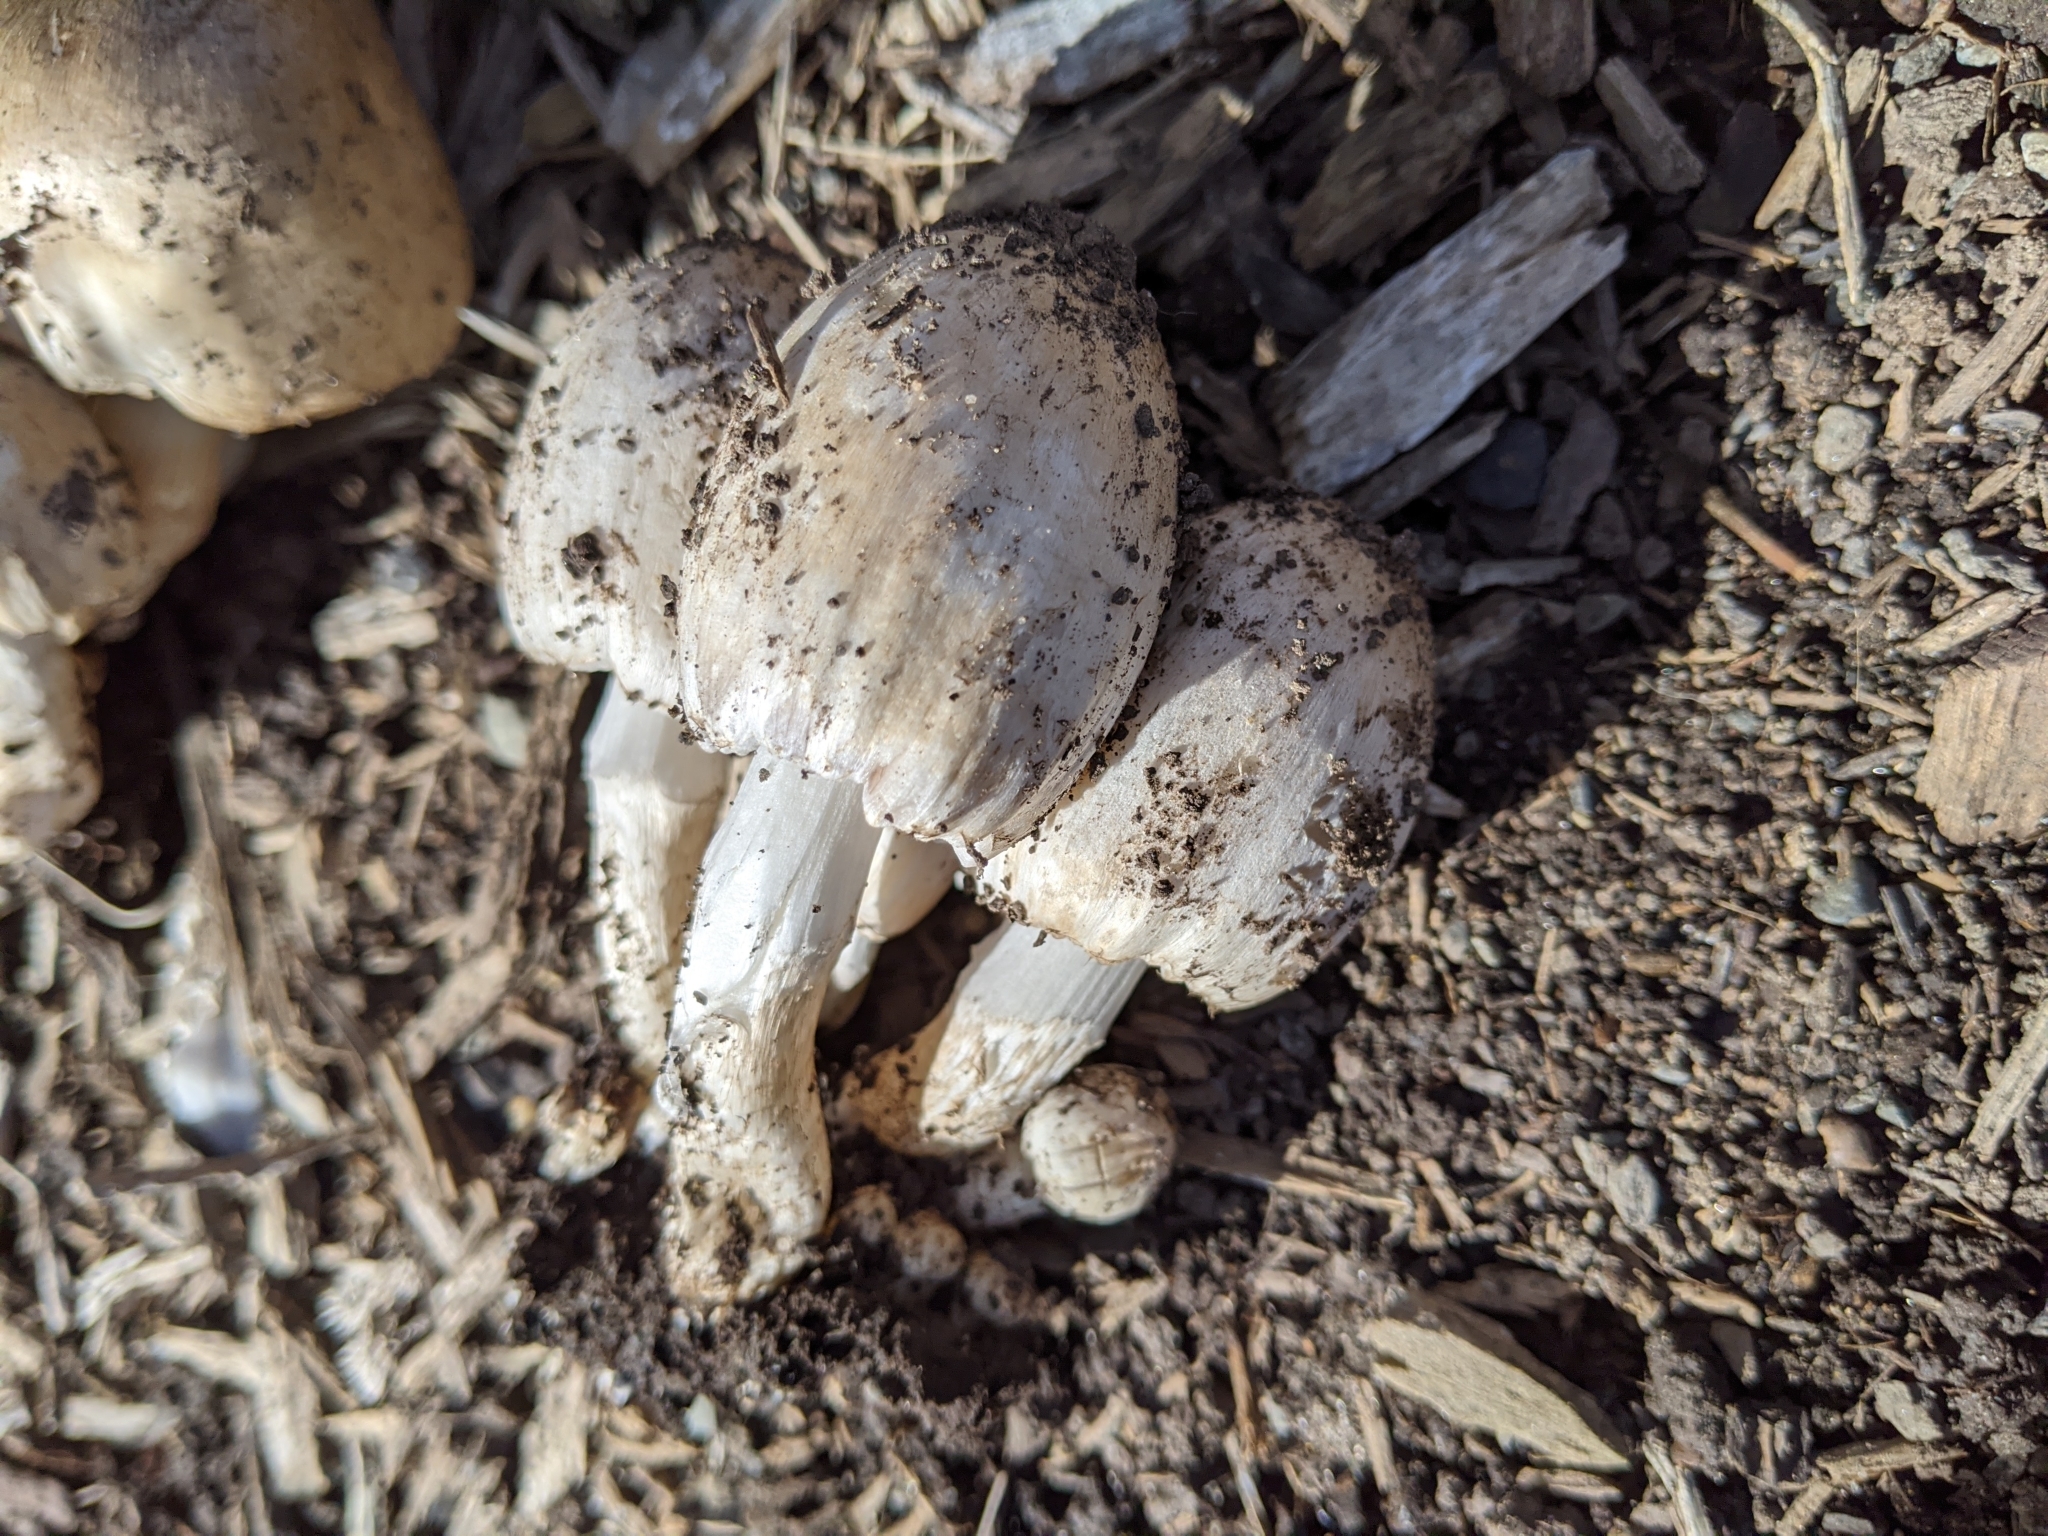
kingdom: Fungi
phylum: Basidiomycota
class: Agaricomycetes
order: Agaricales
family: Psathyrellaceae
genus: Coprinopsis
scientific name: Coprinopsis atramentaria
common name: Common ink-cap
